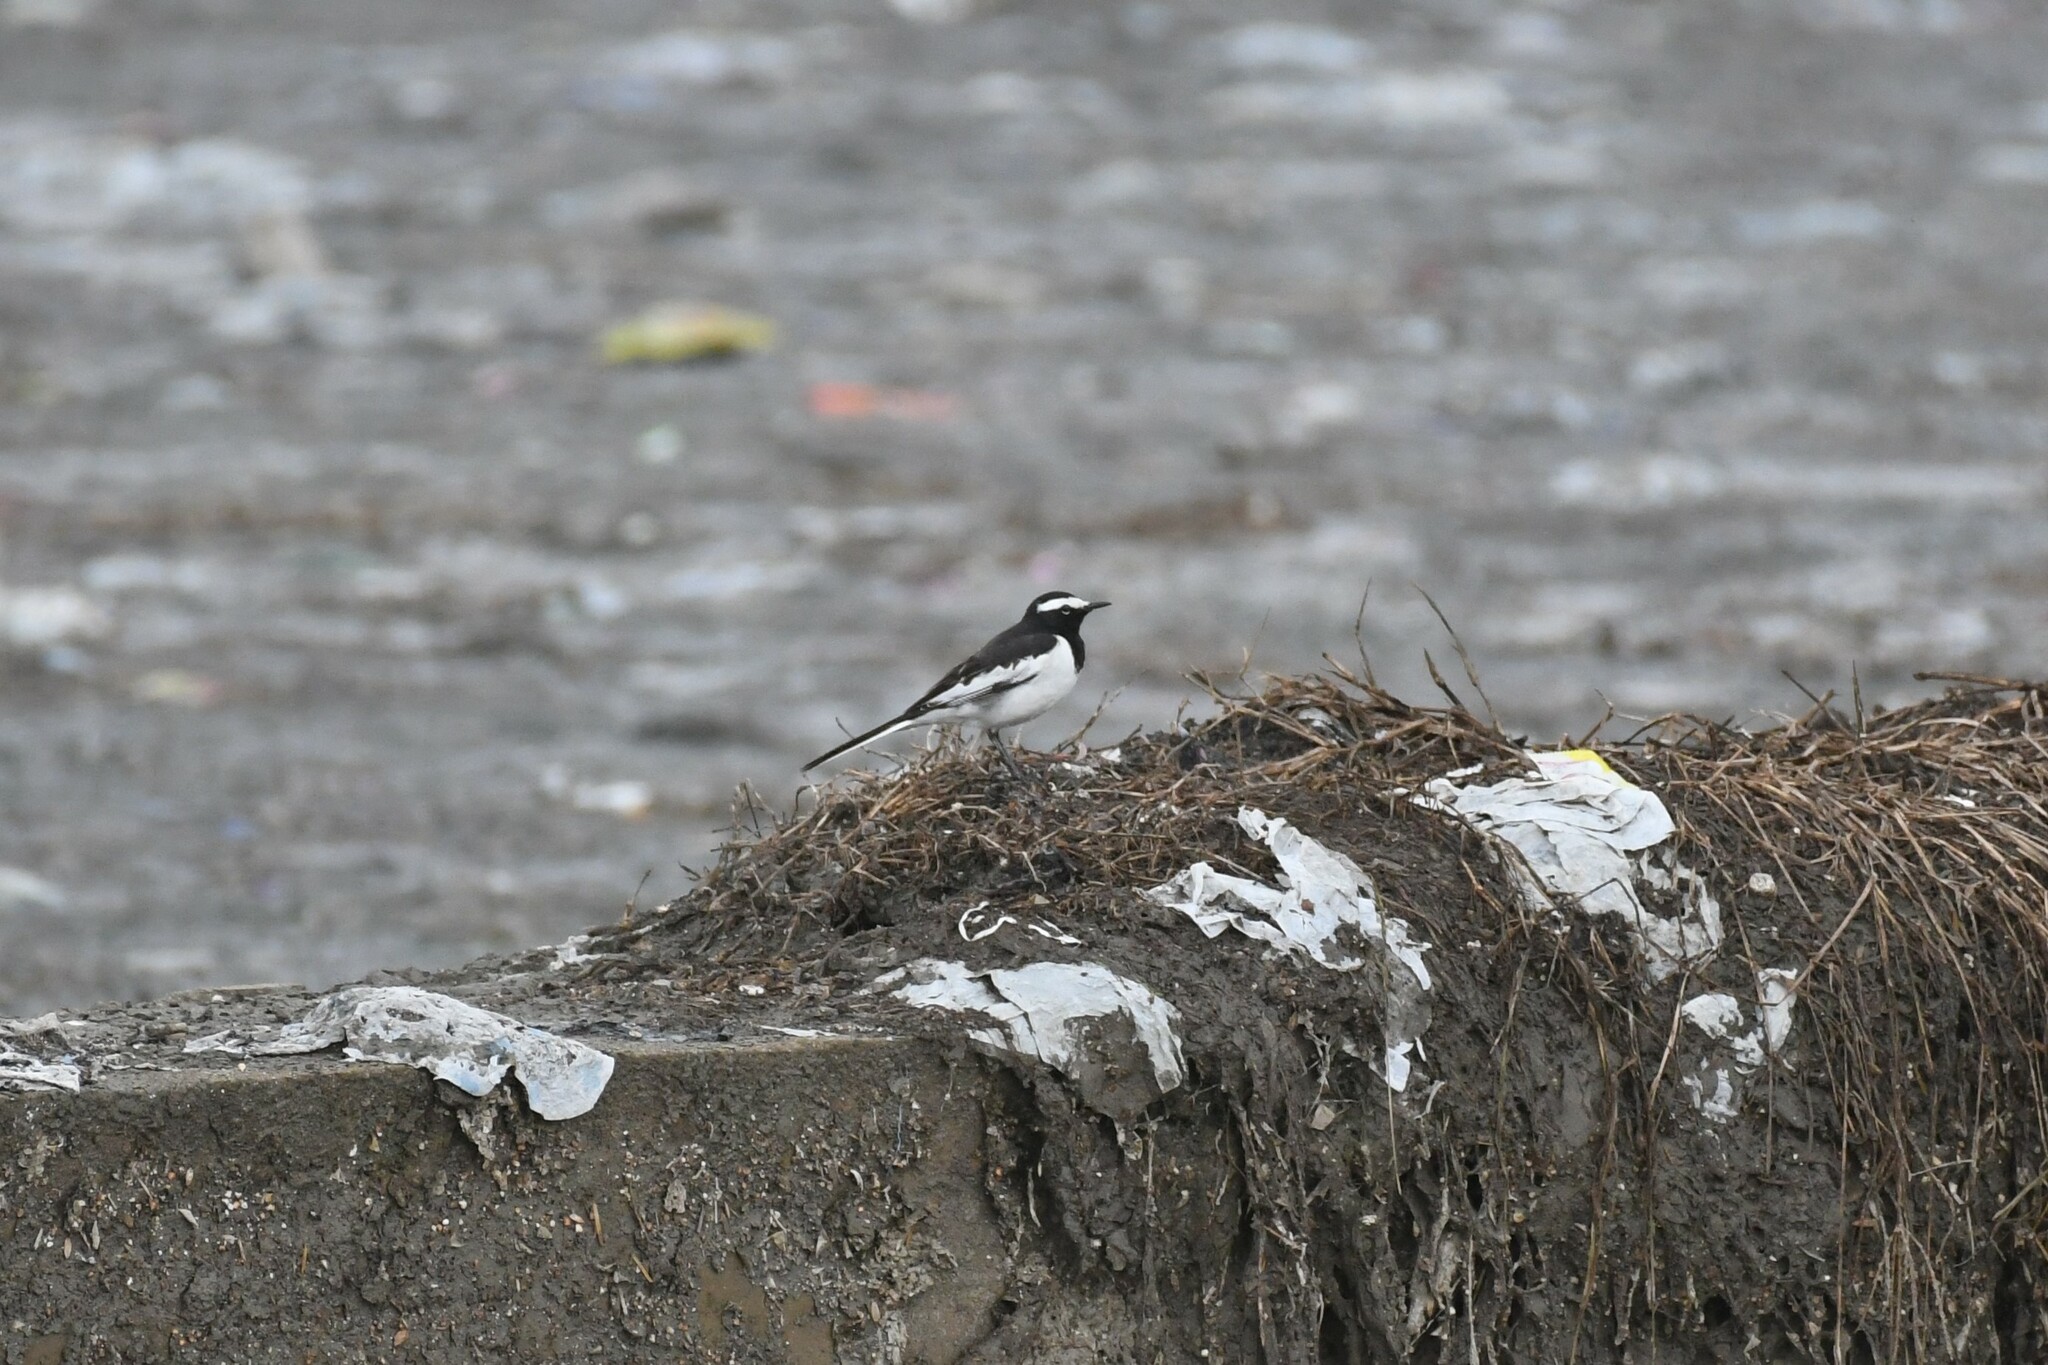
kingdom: Animalia
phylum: Chordata
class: Aves
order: Passeriformes
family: Motacillidae
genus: Motacilla
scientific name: Motacilla maderaspatensis
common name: White-browed wagtail
